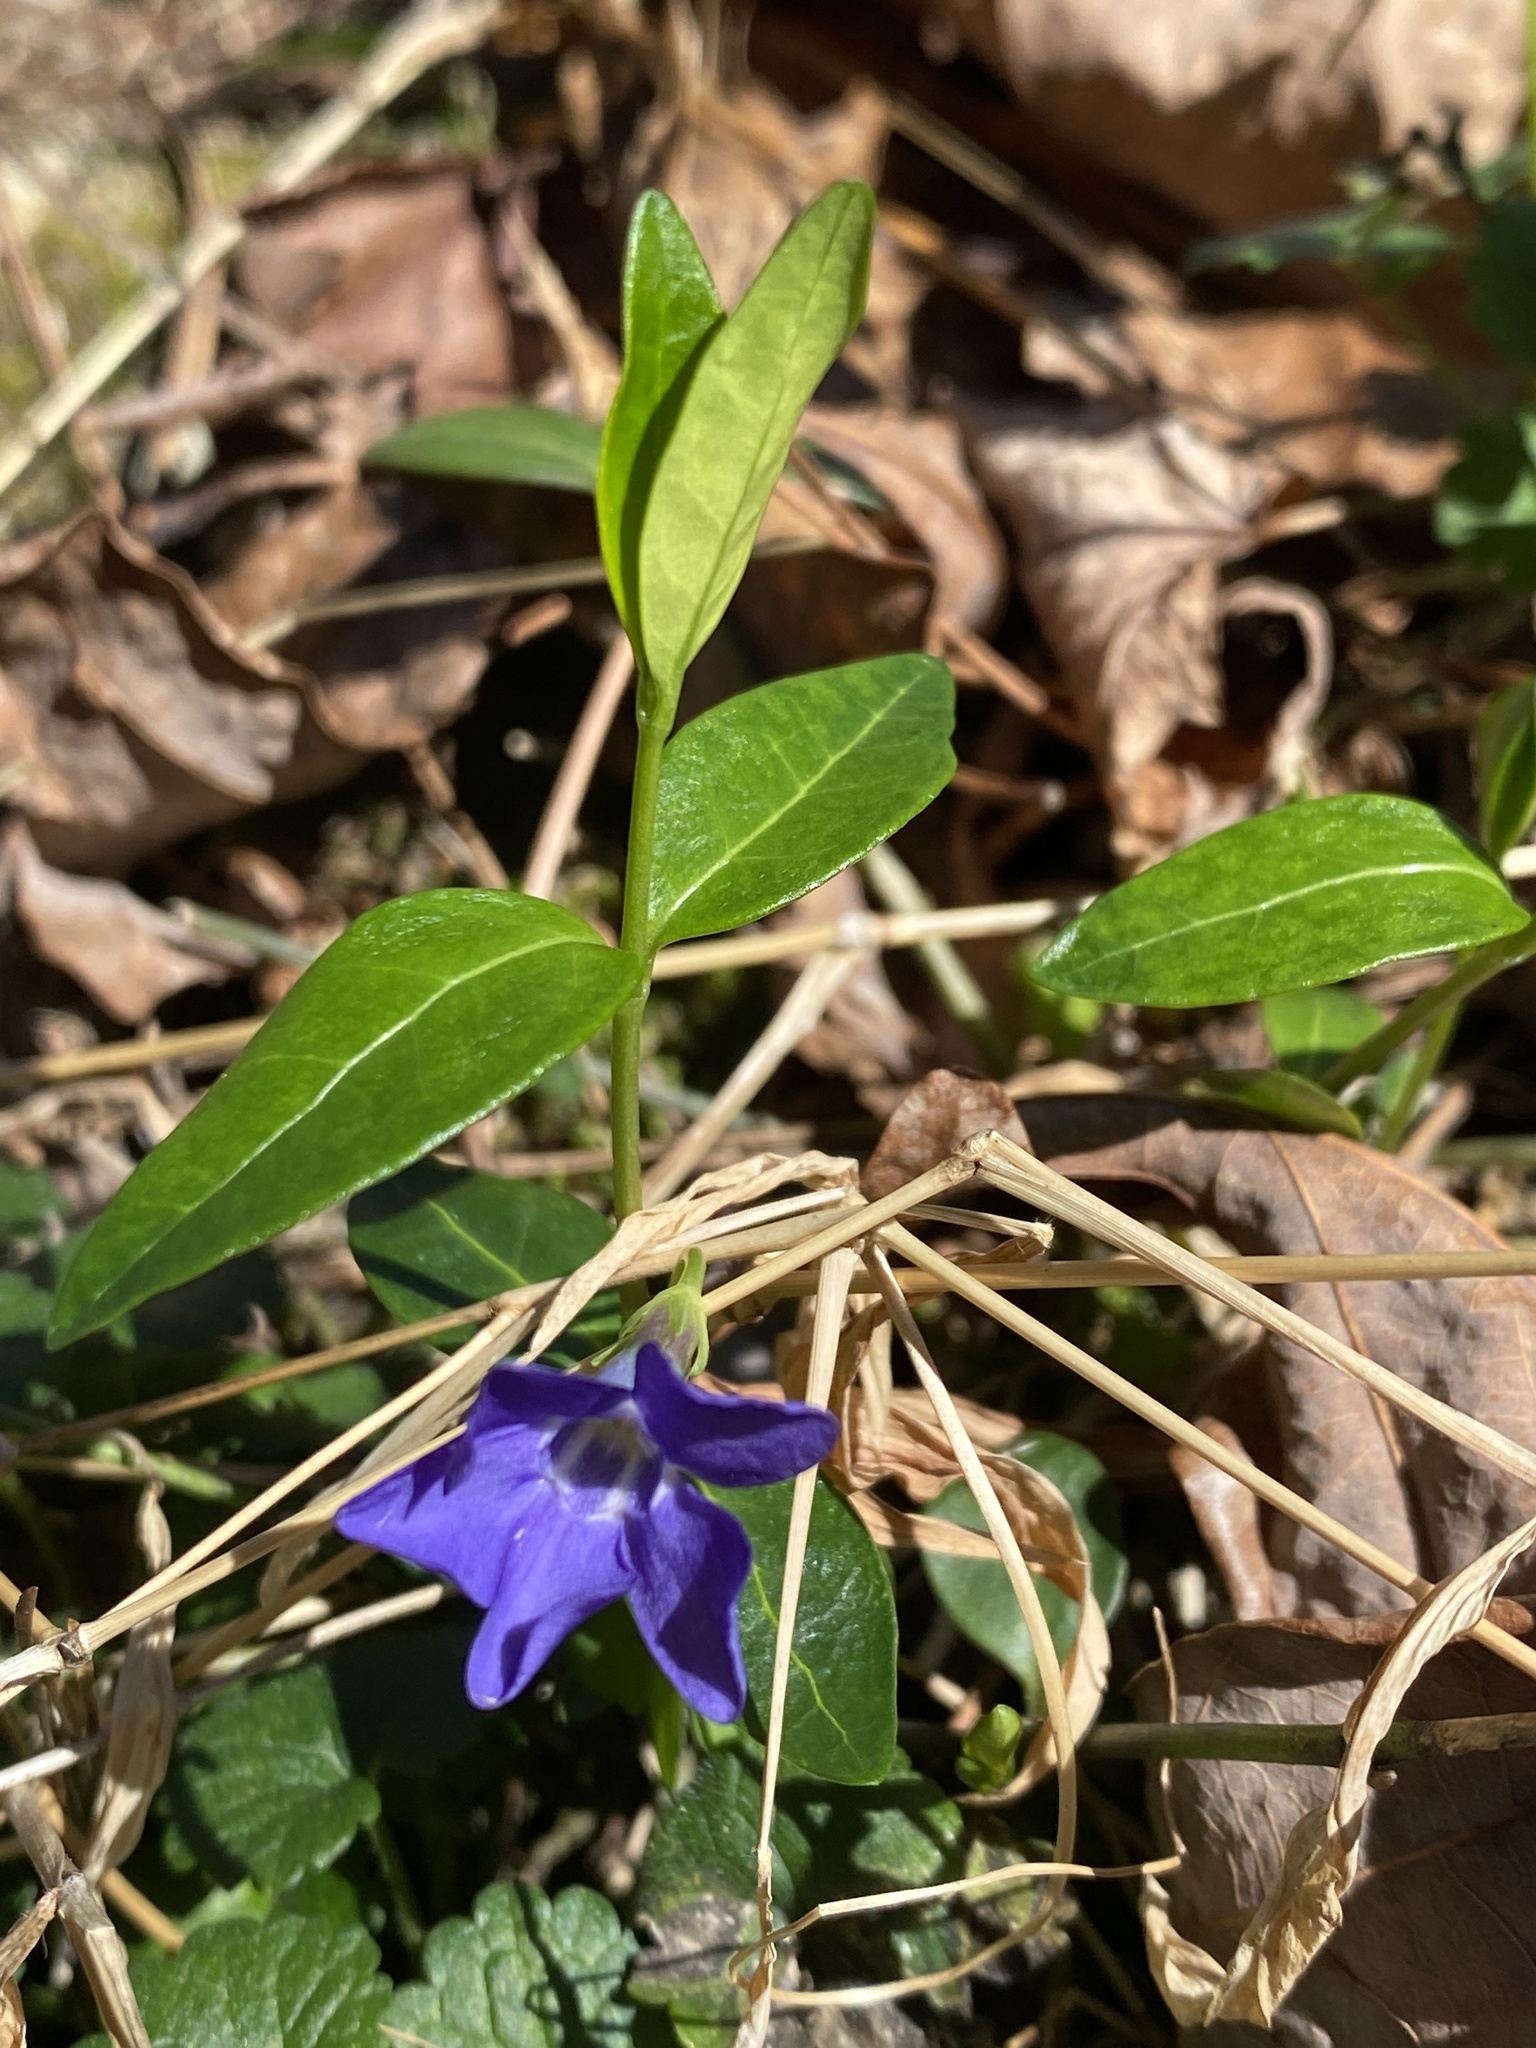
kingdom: Plantae
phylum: Tracheophyta
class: Magnoliopsida
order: Gentianales
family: Apocynaceae
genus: Vinca
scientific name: Vinca minor
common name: Lesser periwinkle
